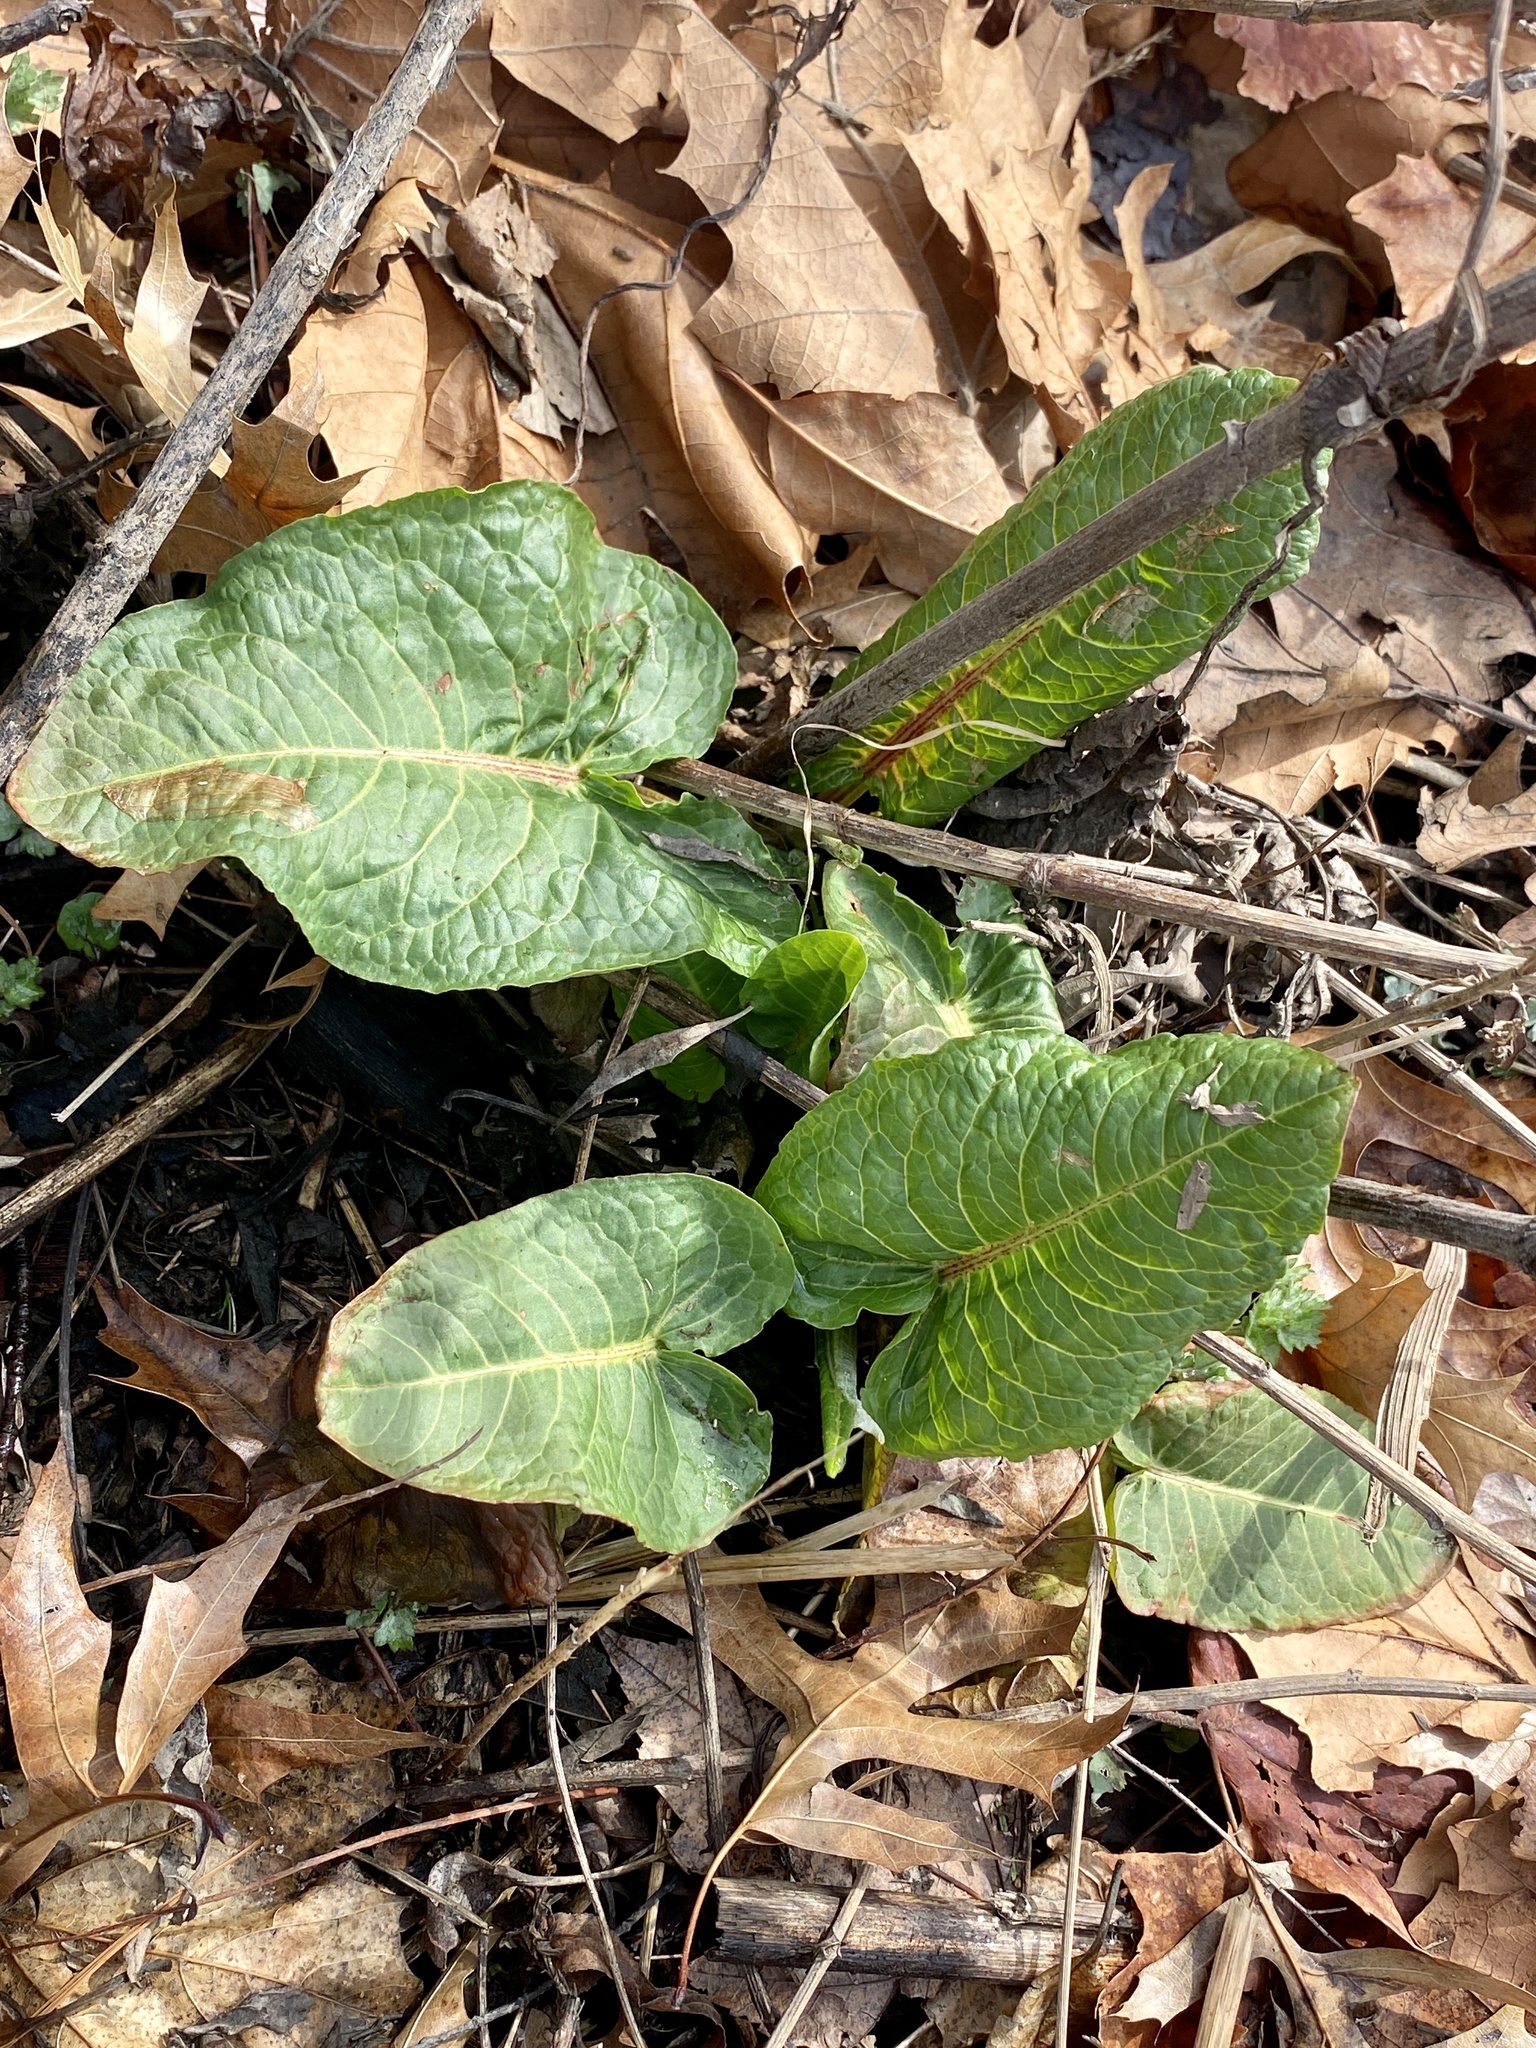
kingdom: Plantae
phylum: Tracheophyta
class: Magnoliopsida
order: Caryophyllales
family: Polygonaceae
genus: Rumex
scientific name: Rumex obtusifolius
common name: Bitter dock
